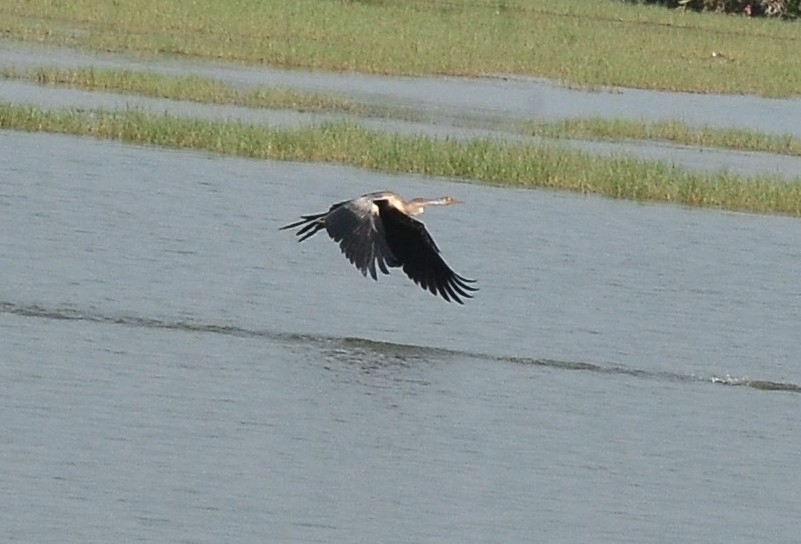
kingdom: Animalia
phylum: Chordata
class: Aves
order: Suliformes
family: Anhingidae
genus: Anhinga
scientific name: Anhinga melanogaster
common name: Oriental darter
